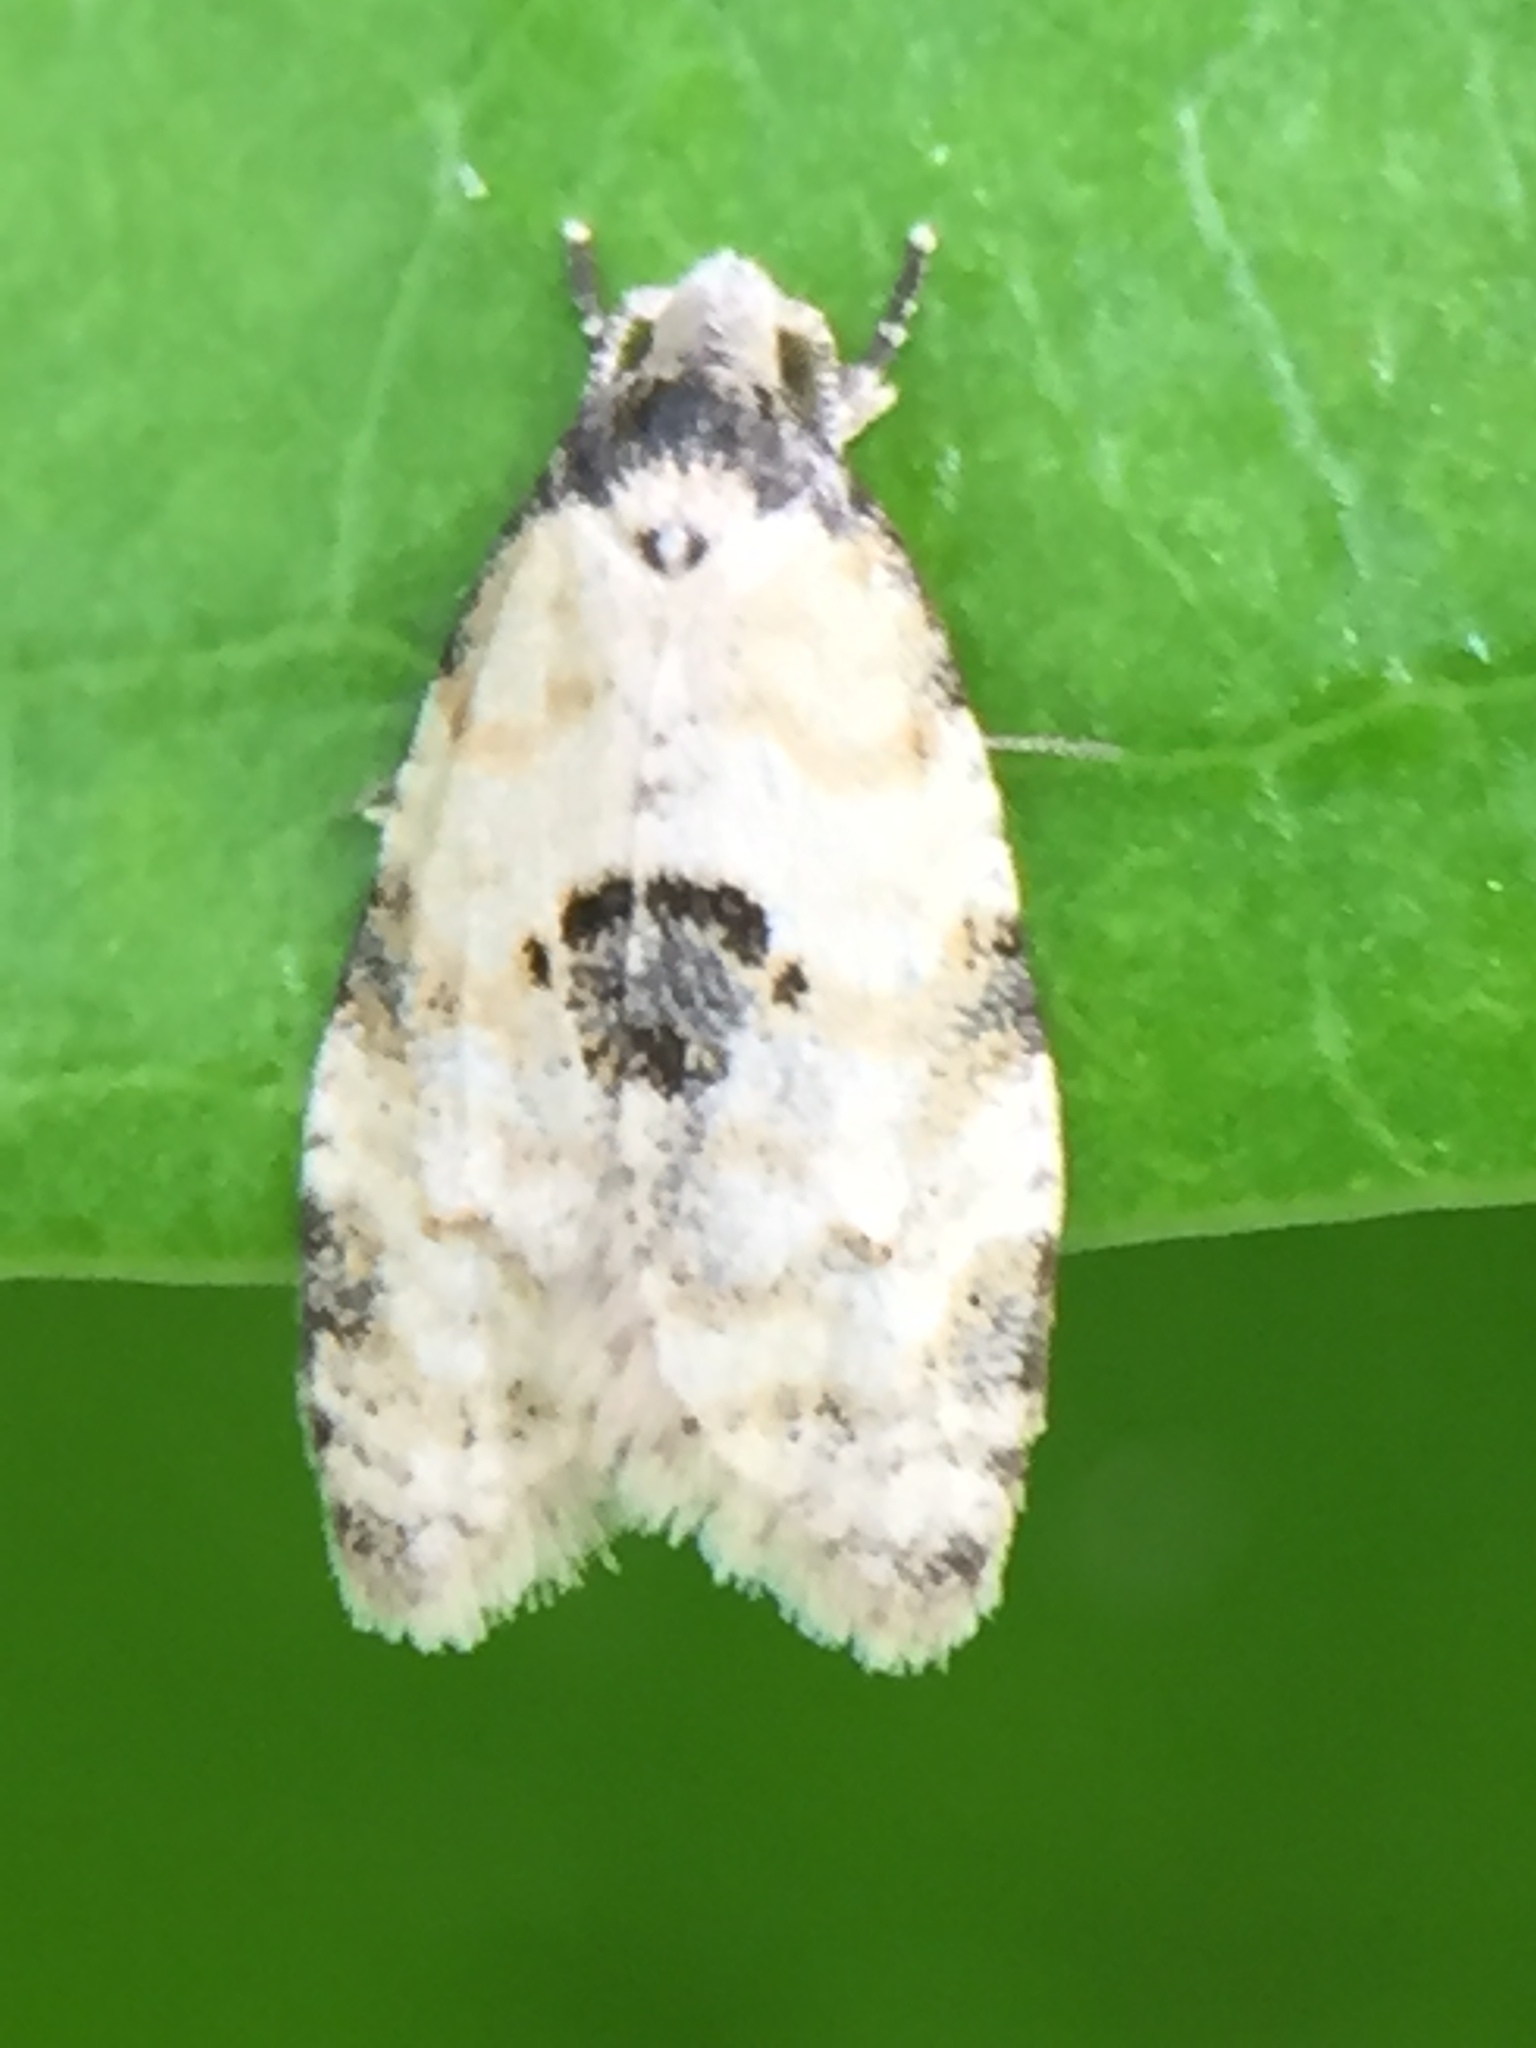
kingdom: Animalia
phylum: Arthropoda
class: Insecta
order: Lepidoptera
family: Tortricidae
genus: Dipterina
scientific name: Dipterina imbriferana
